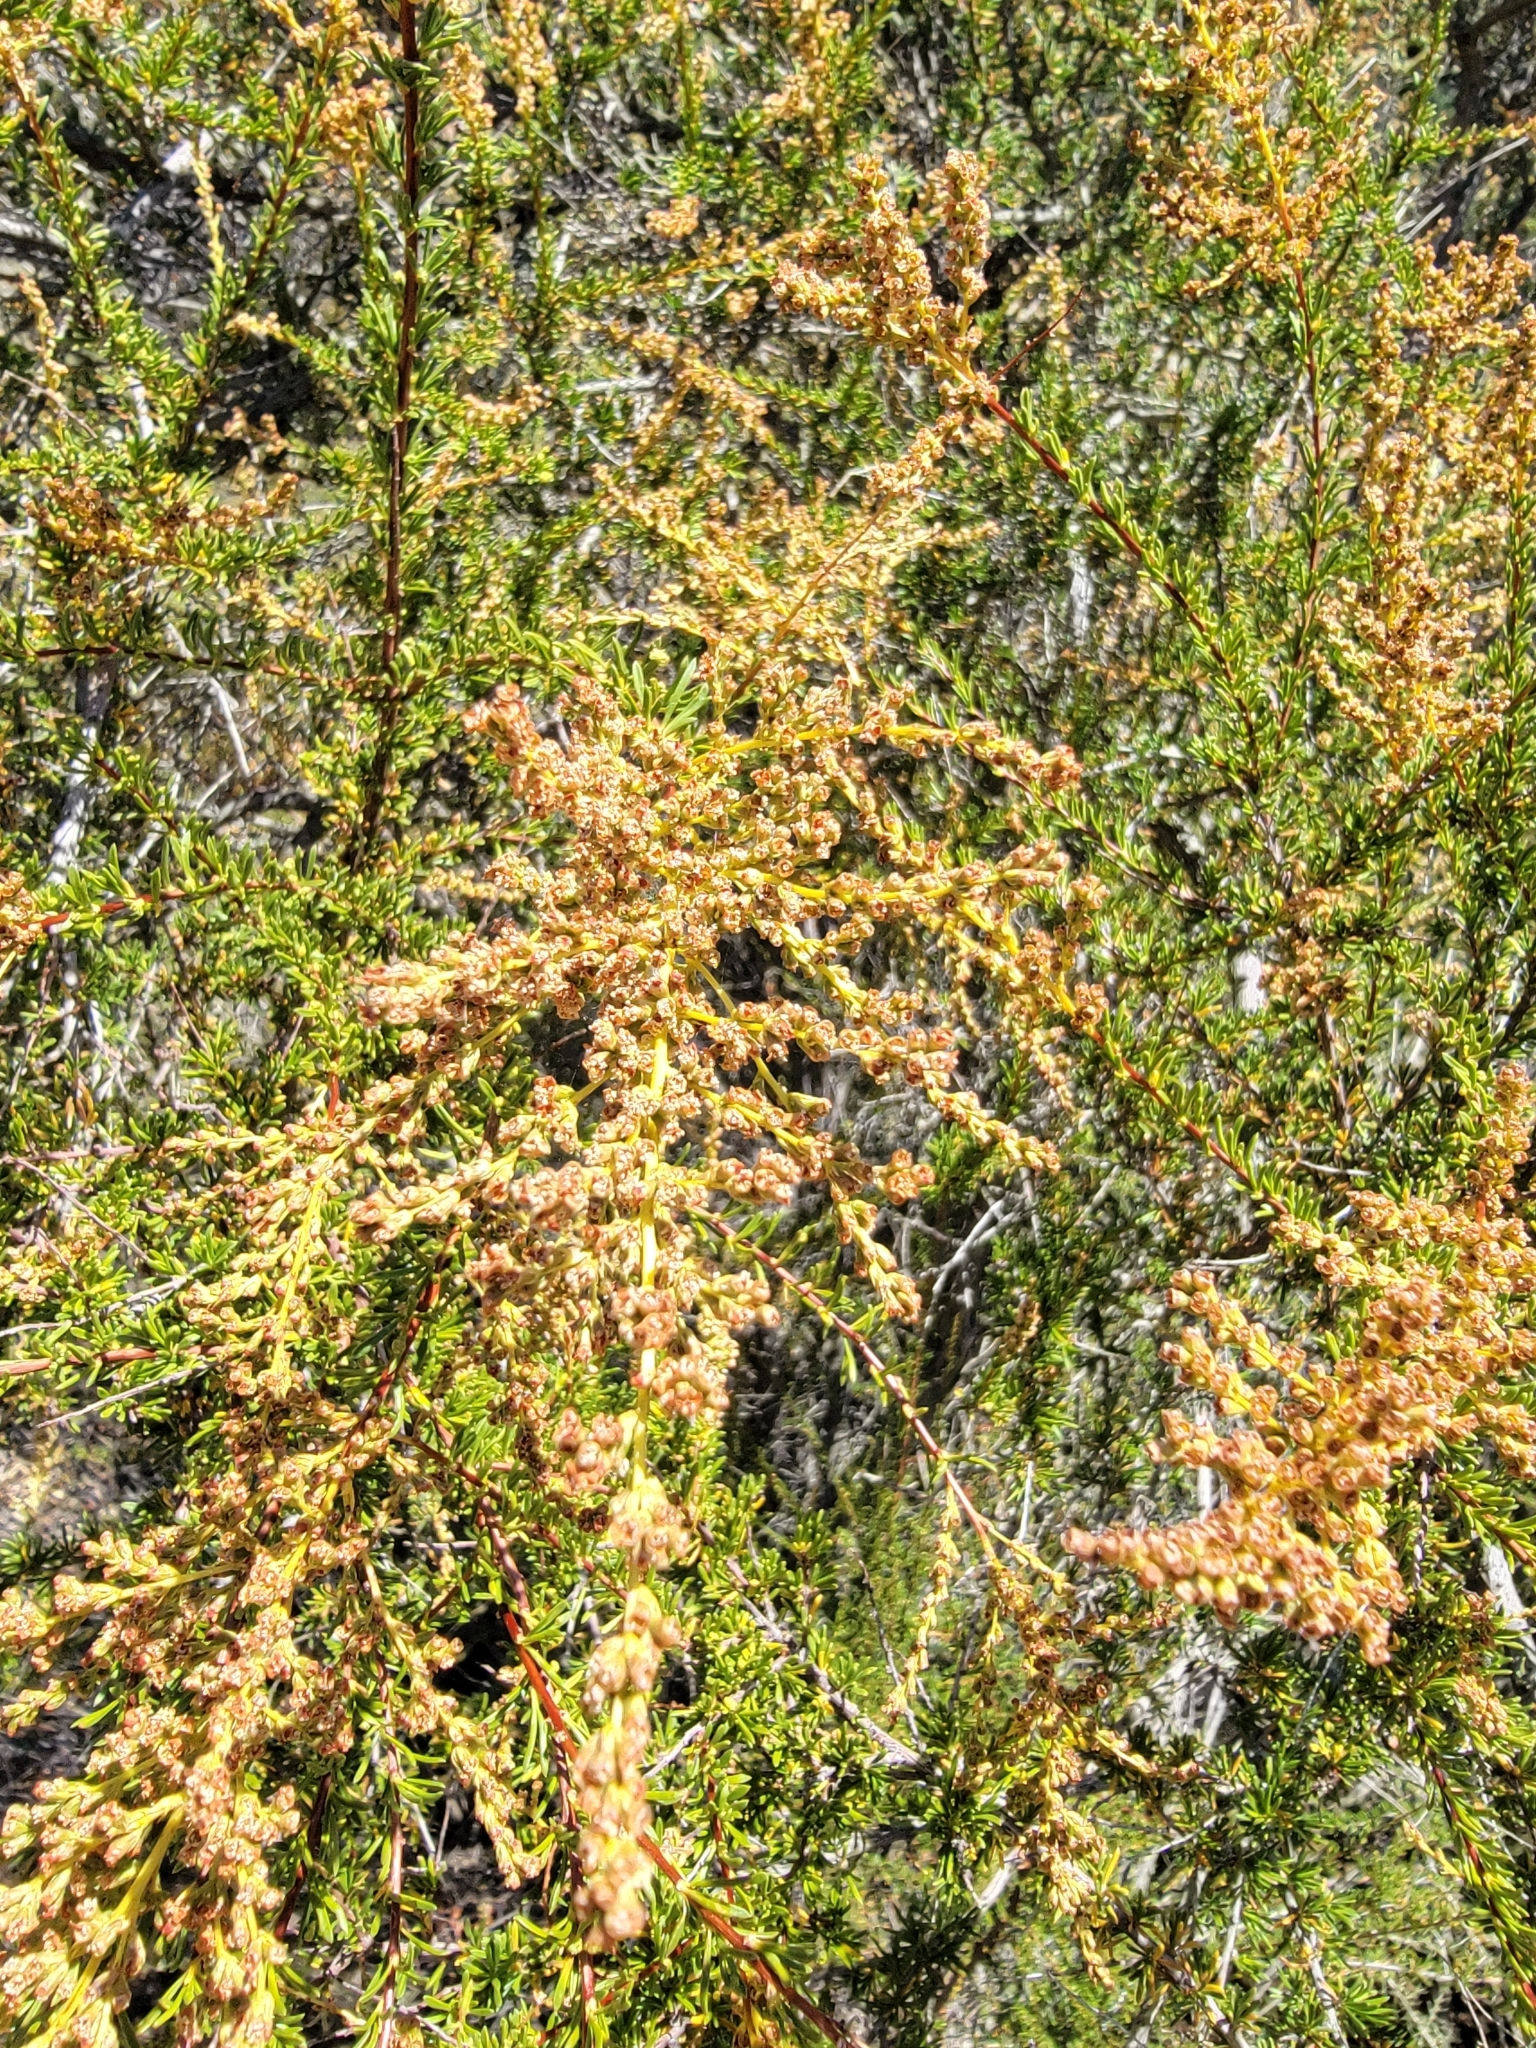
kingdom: Plantae
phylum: Tracheophyta
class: Magnoliopsida
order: Rosales
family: Rosaceae
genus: Adenostoma
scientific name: Adenostoma fasciculatum
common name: Chamise
